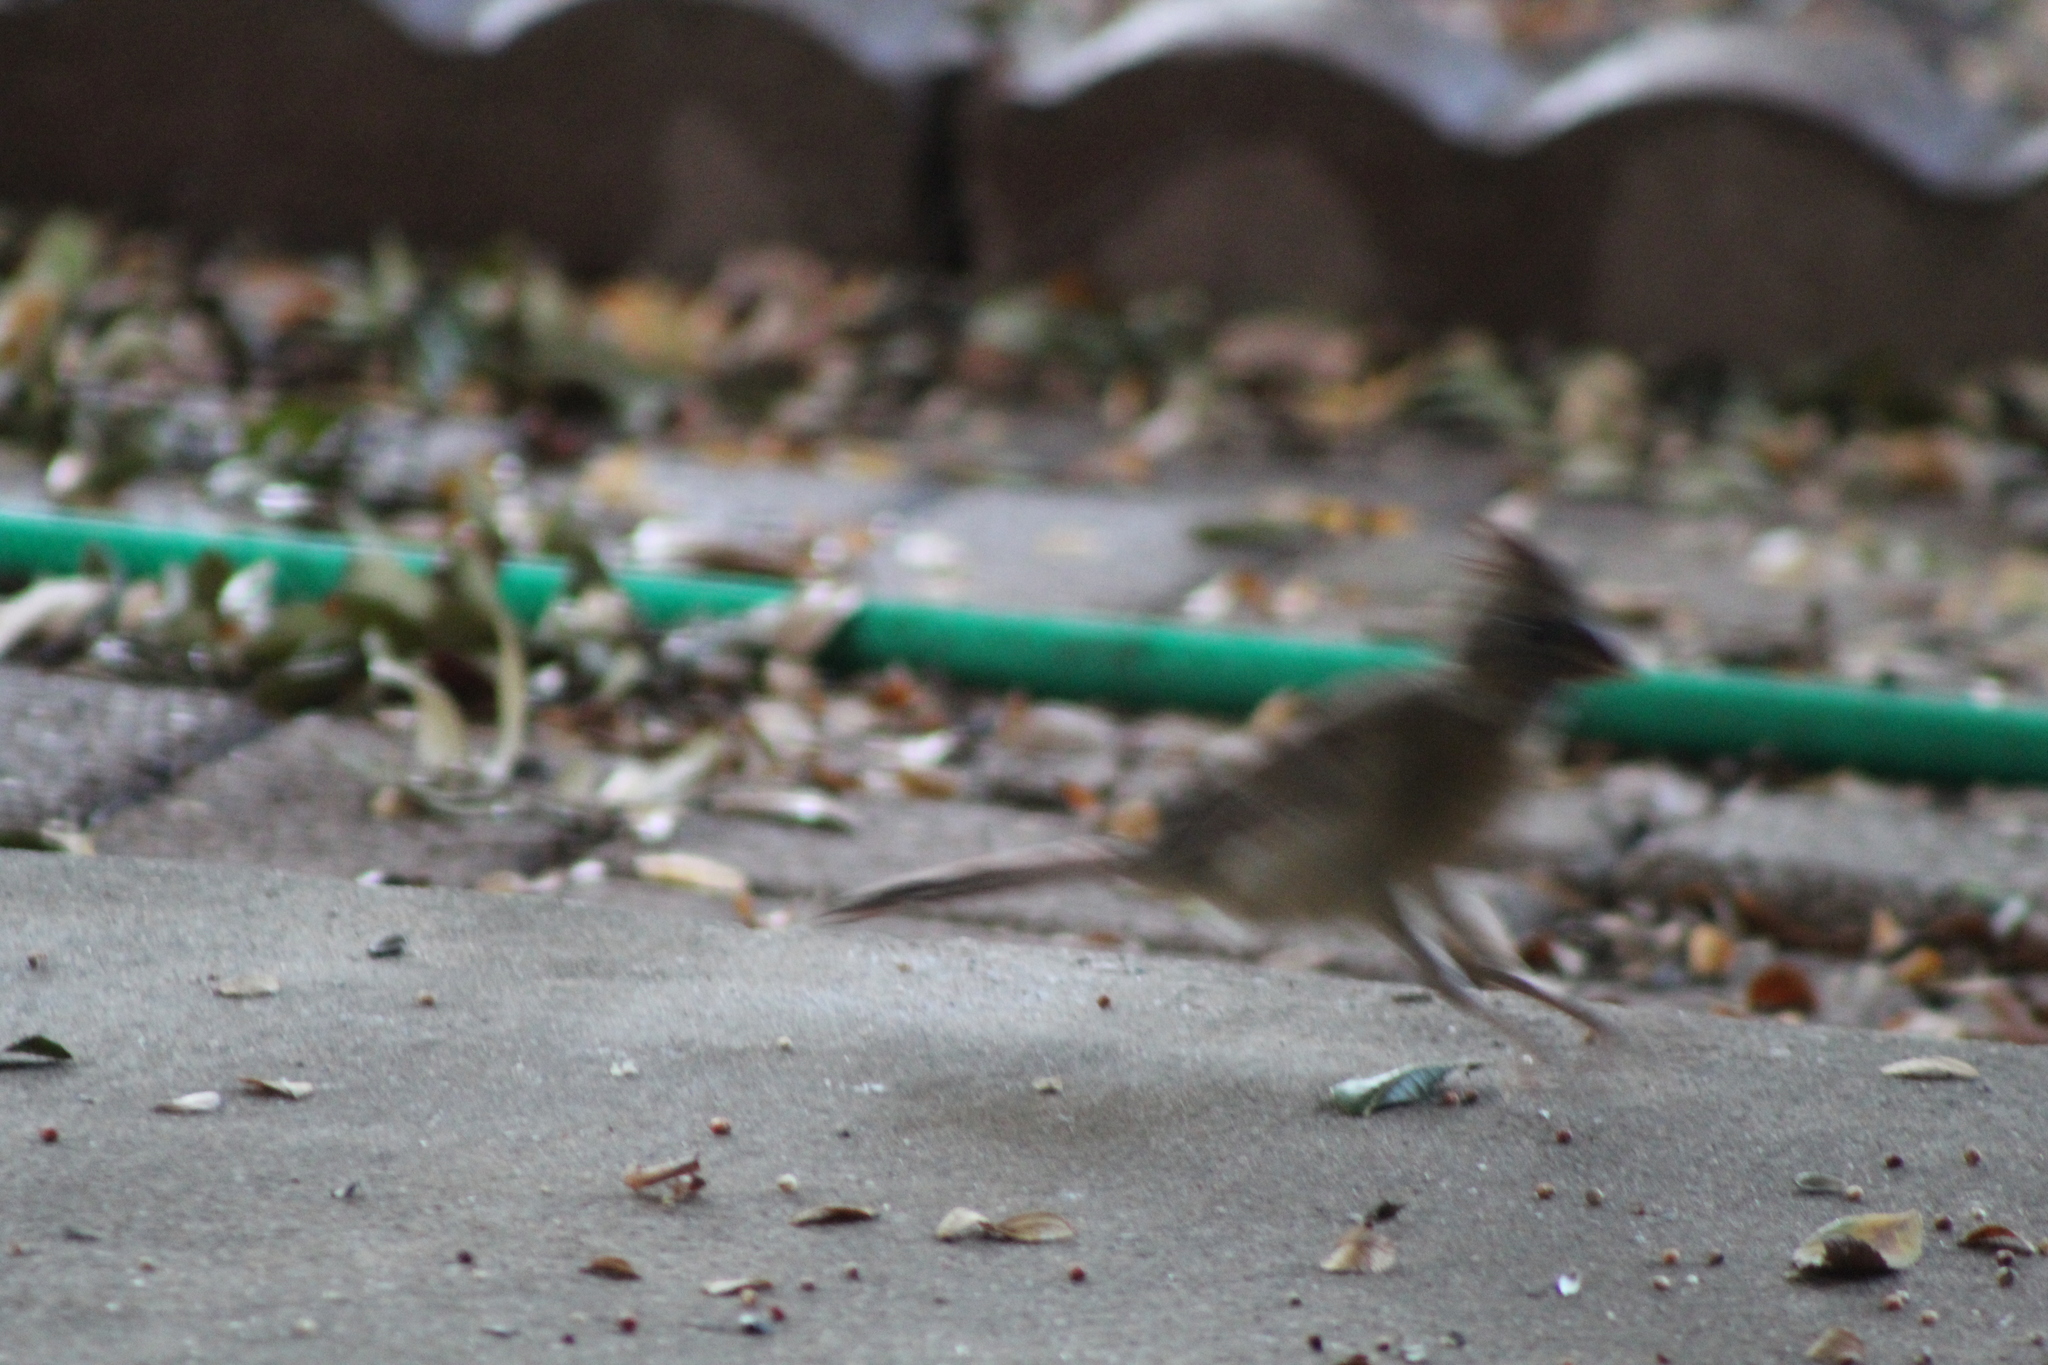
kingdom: Animalia
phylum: Chordata
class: Aves
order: Passeriformes
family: Cardinalidae
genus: Cardinalis
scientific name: Cardinalis cardinalis
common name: Northern cardinal
